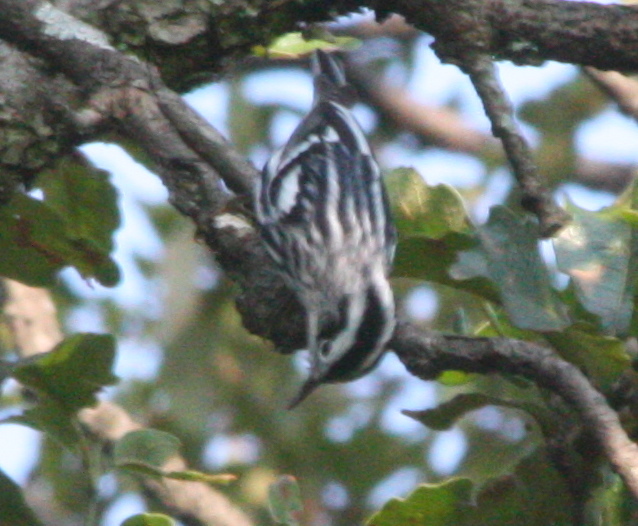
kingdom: Animalia
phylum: Chordata
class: Aves
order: Passeriformes
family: Parulidae
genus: Mniotilta
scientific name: Mniotilta varia
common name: Black-and-white warbler
